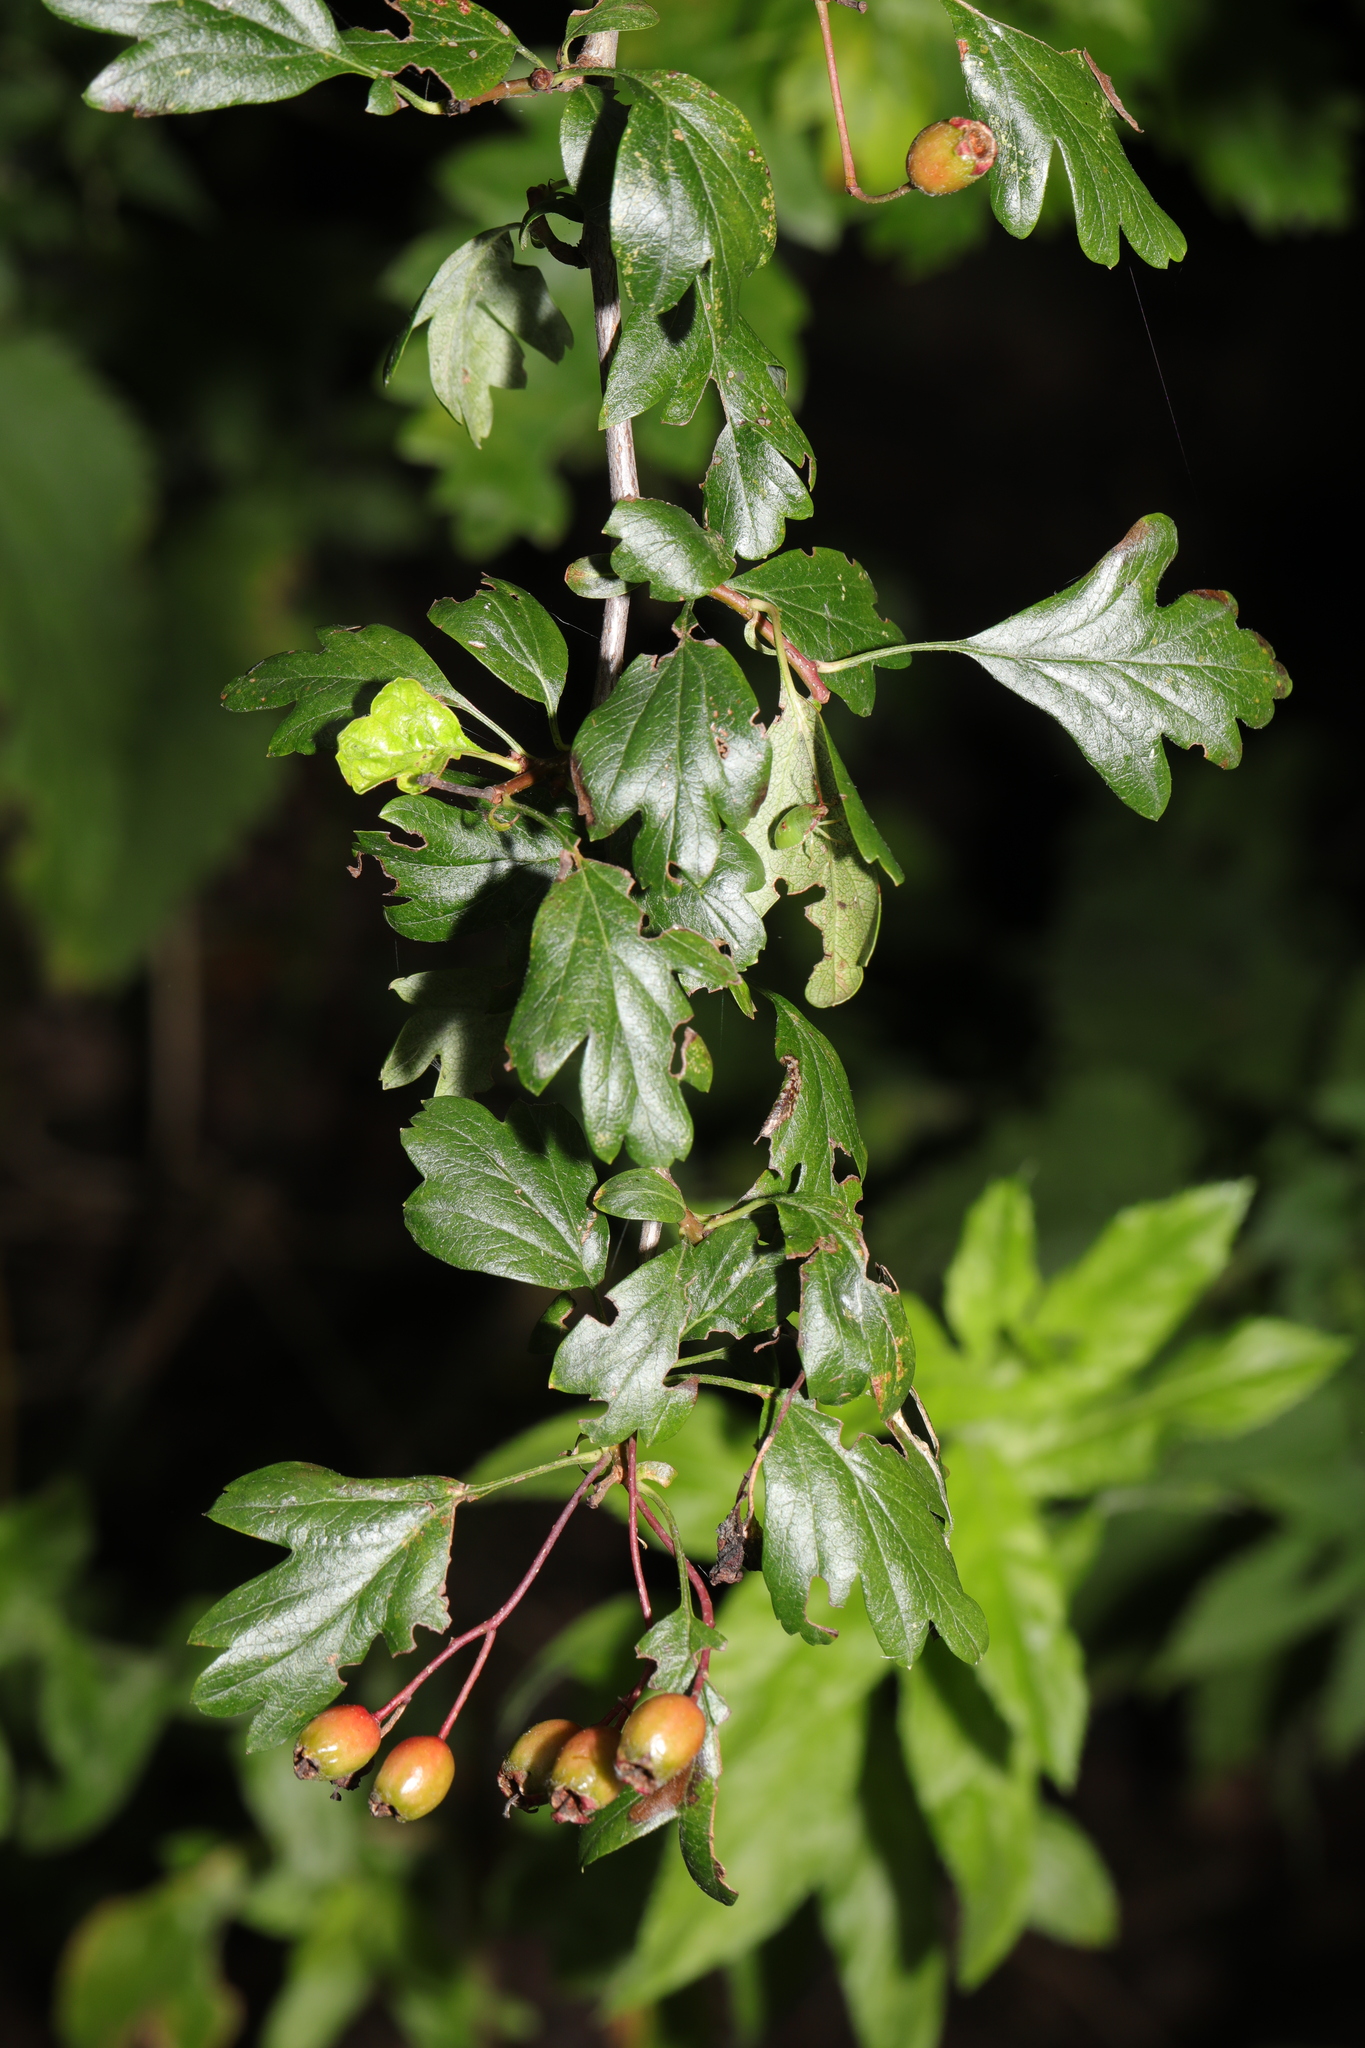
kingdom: Plantae
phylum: Tracheophyta
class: Magnoliopsida
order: Rosales
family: Rosaceae
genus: Crataegus
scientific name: Crataegus monogyna
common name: Hawthorn
